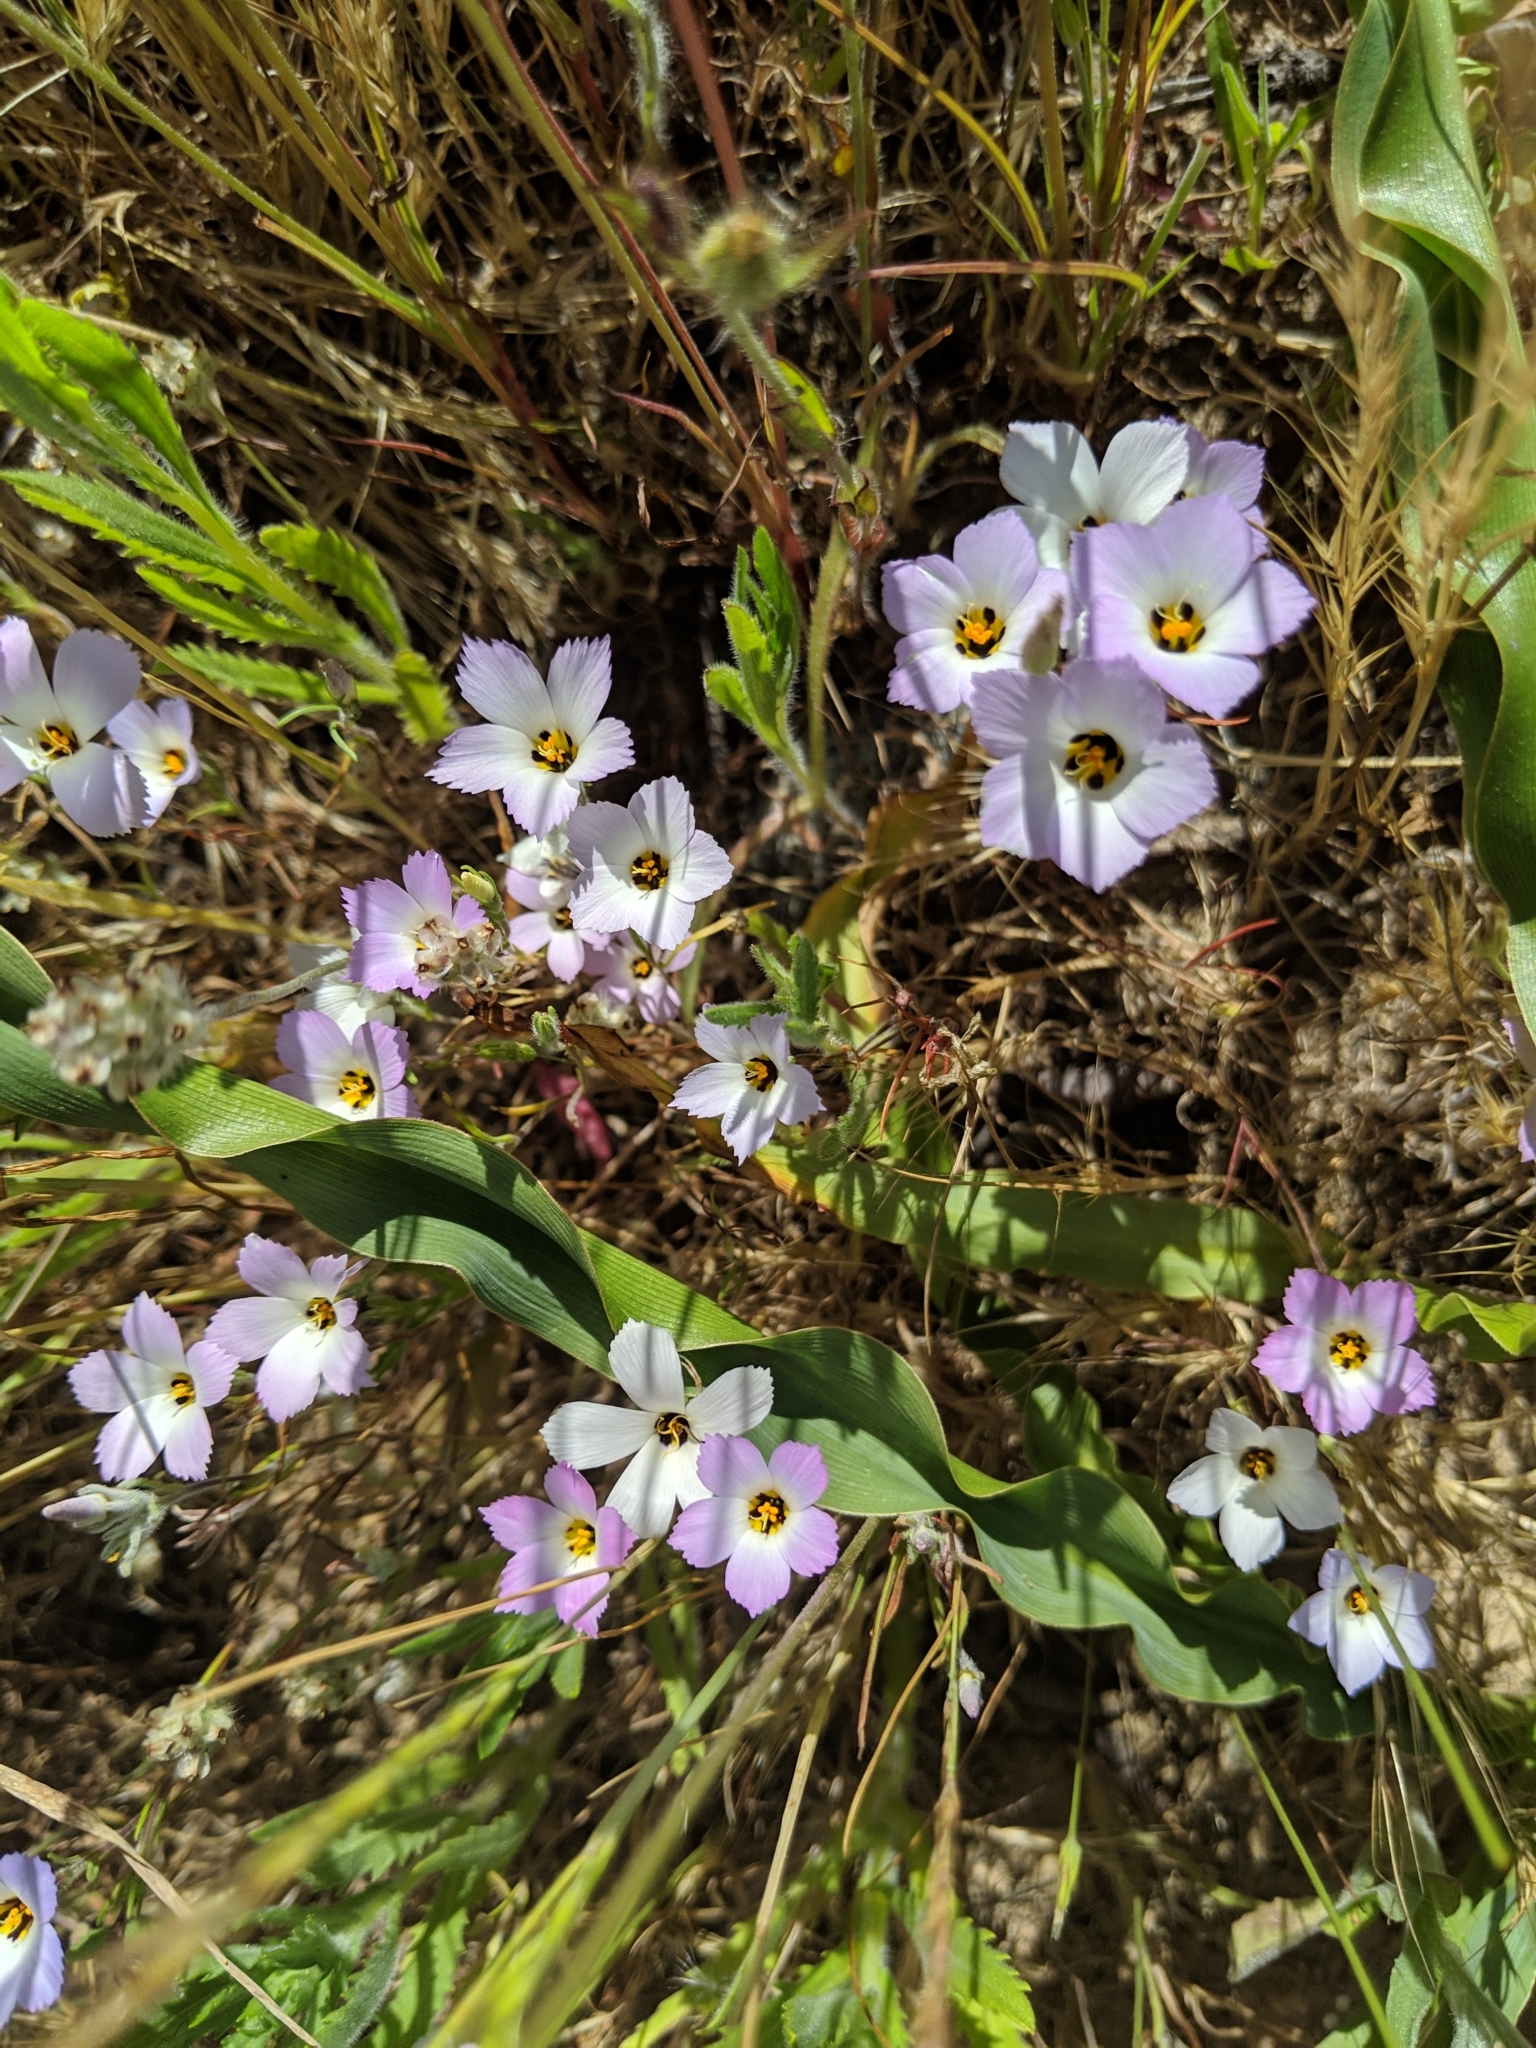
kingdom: Plantae
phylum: Tracheophyta
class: Magnoliopsida
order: Ericales
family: Polemoniaceae
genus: Linanthus
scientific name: Linanthus dianthiflorus
